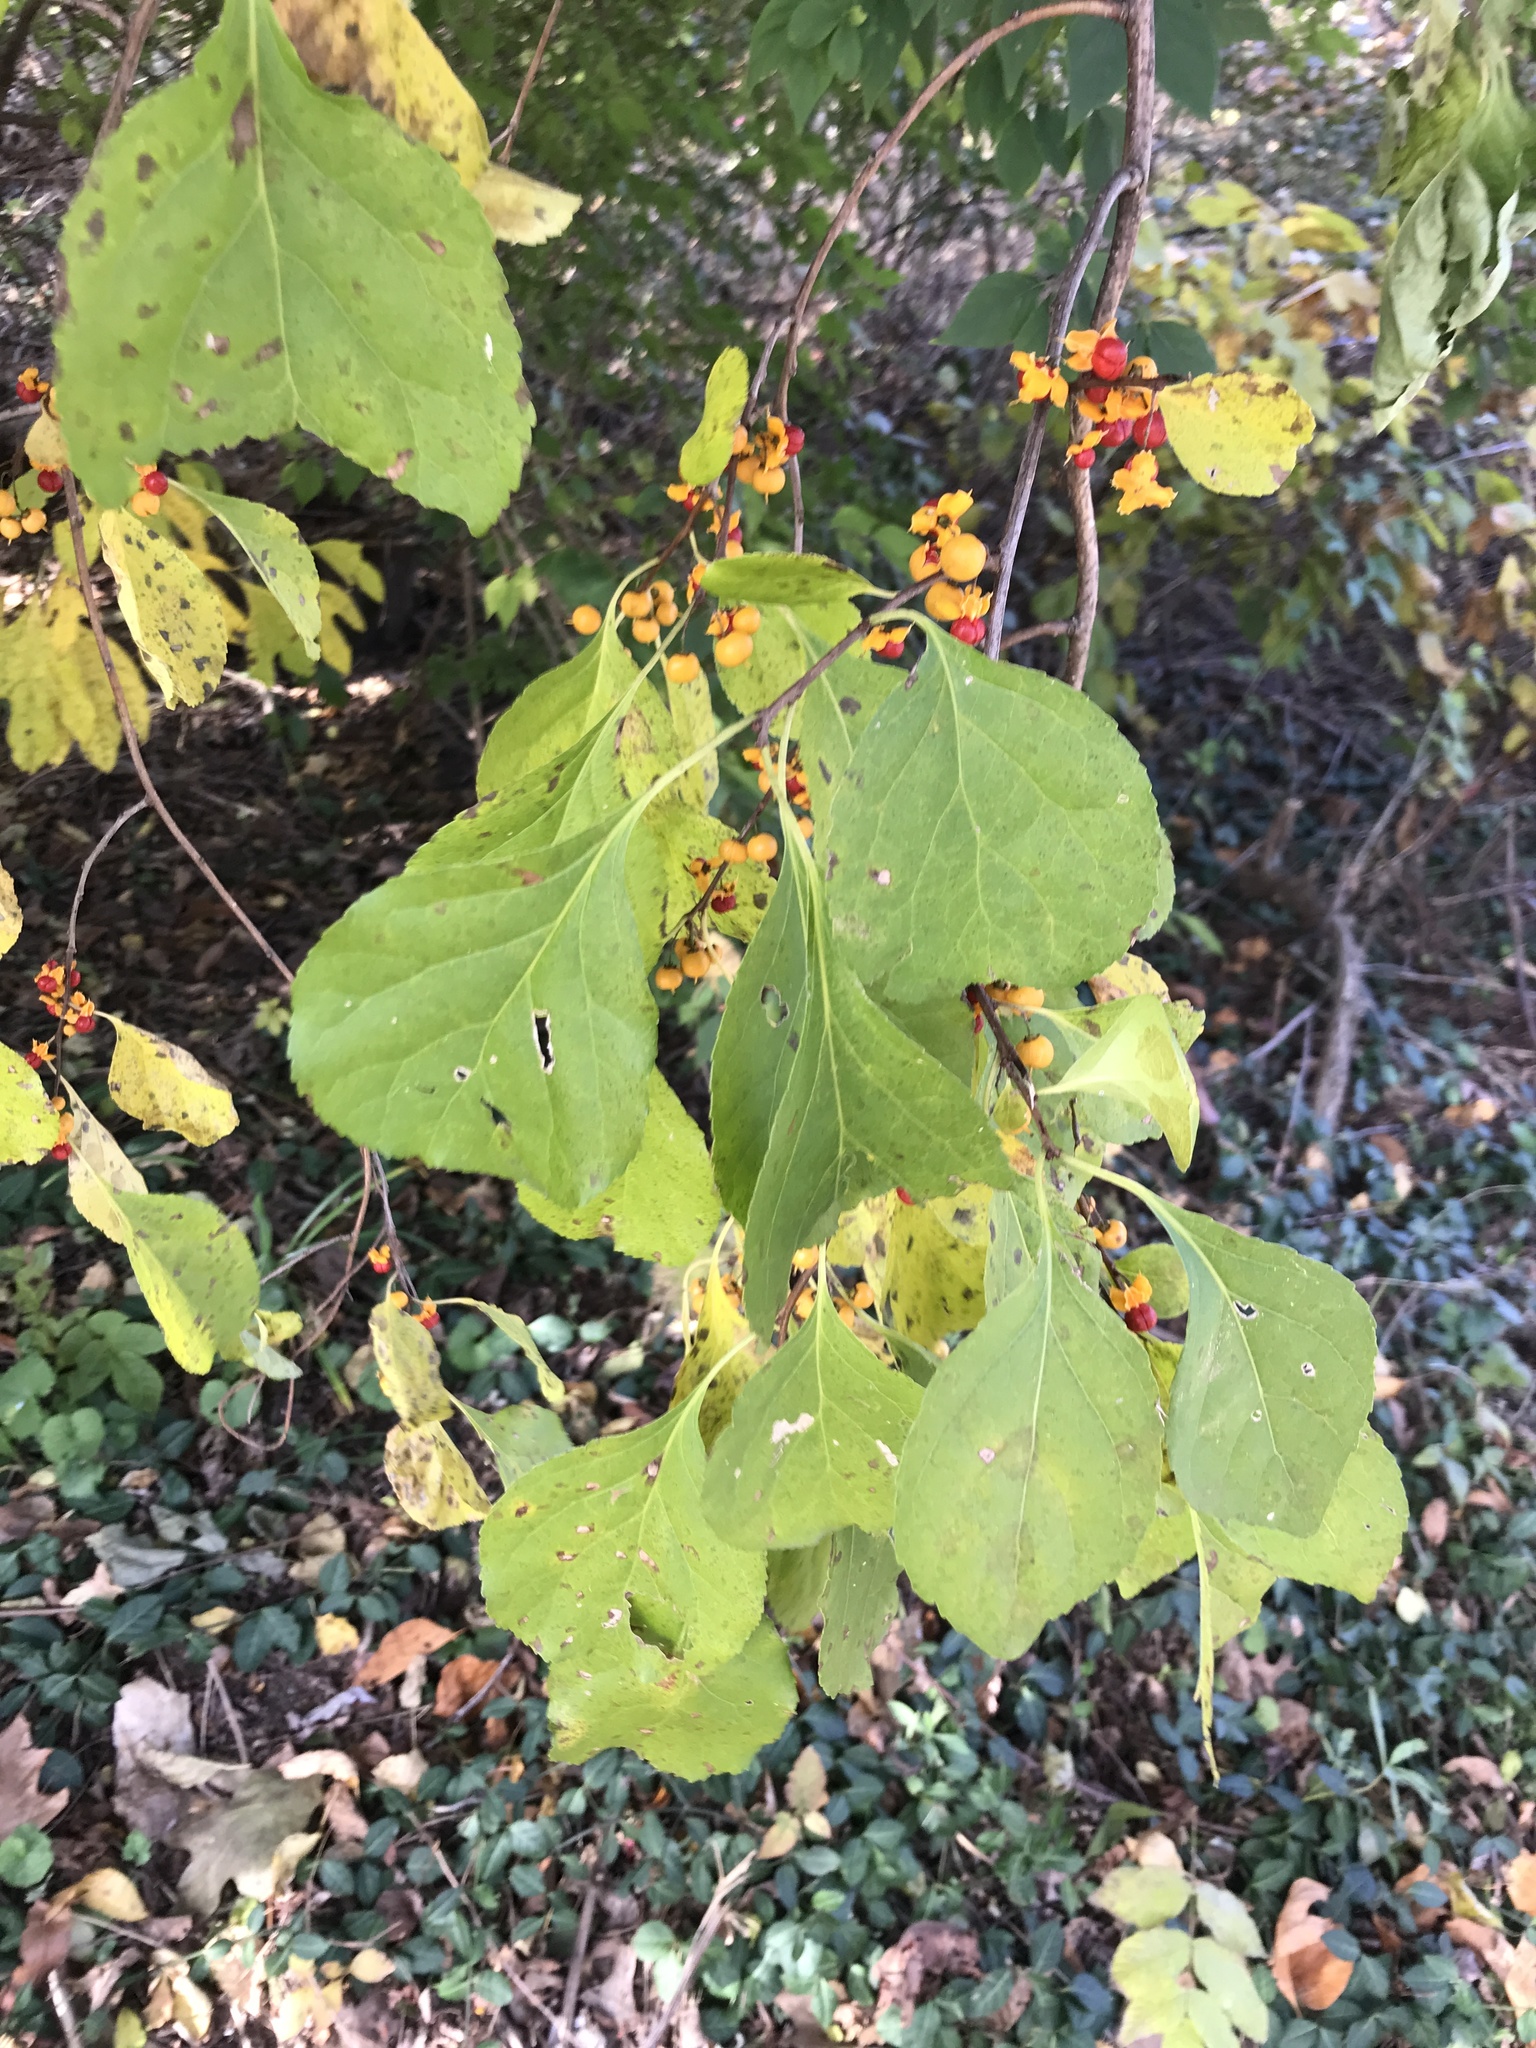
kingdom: Plantae
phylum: Tracheophyta
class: Magnoliopsida
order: Celastrales
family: Celastraceae
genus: Celastrus
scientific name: Celastrus orbiculatus
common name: Oriental bittersweet
